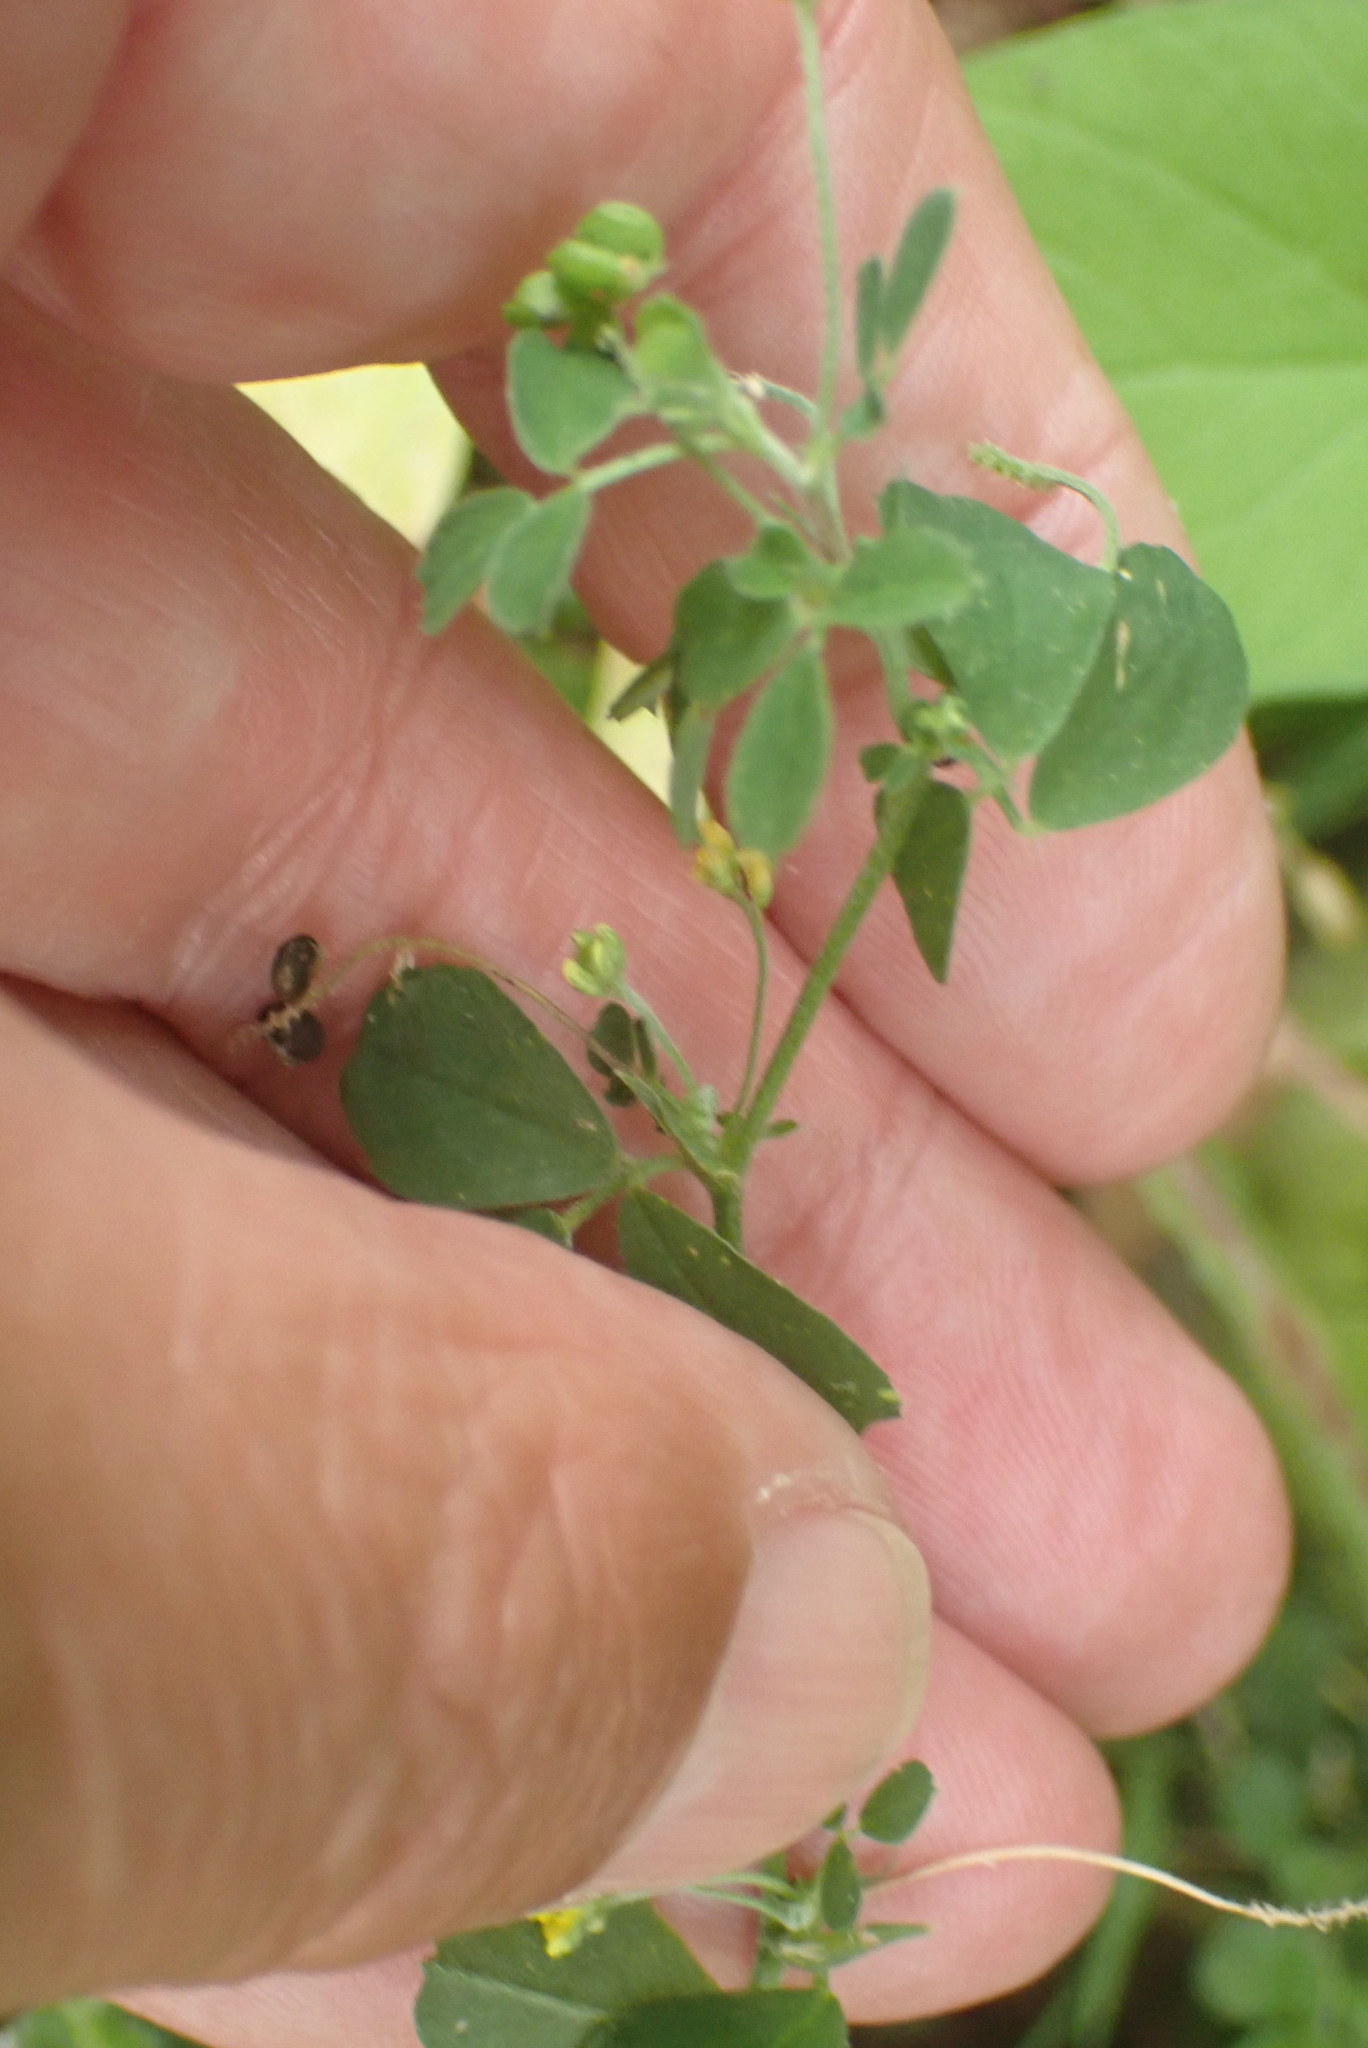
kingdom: Plantae
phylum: Tracheophyta
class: Magnoliopsida
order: Fabales
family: Fabaceae
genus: Medicago
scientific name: Medicago lupulina
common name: Black medick
